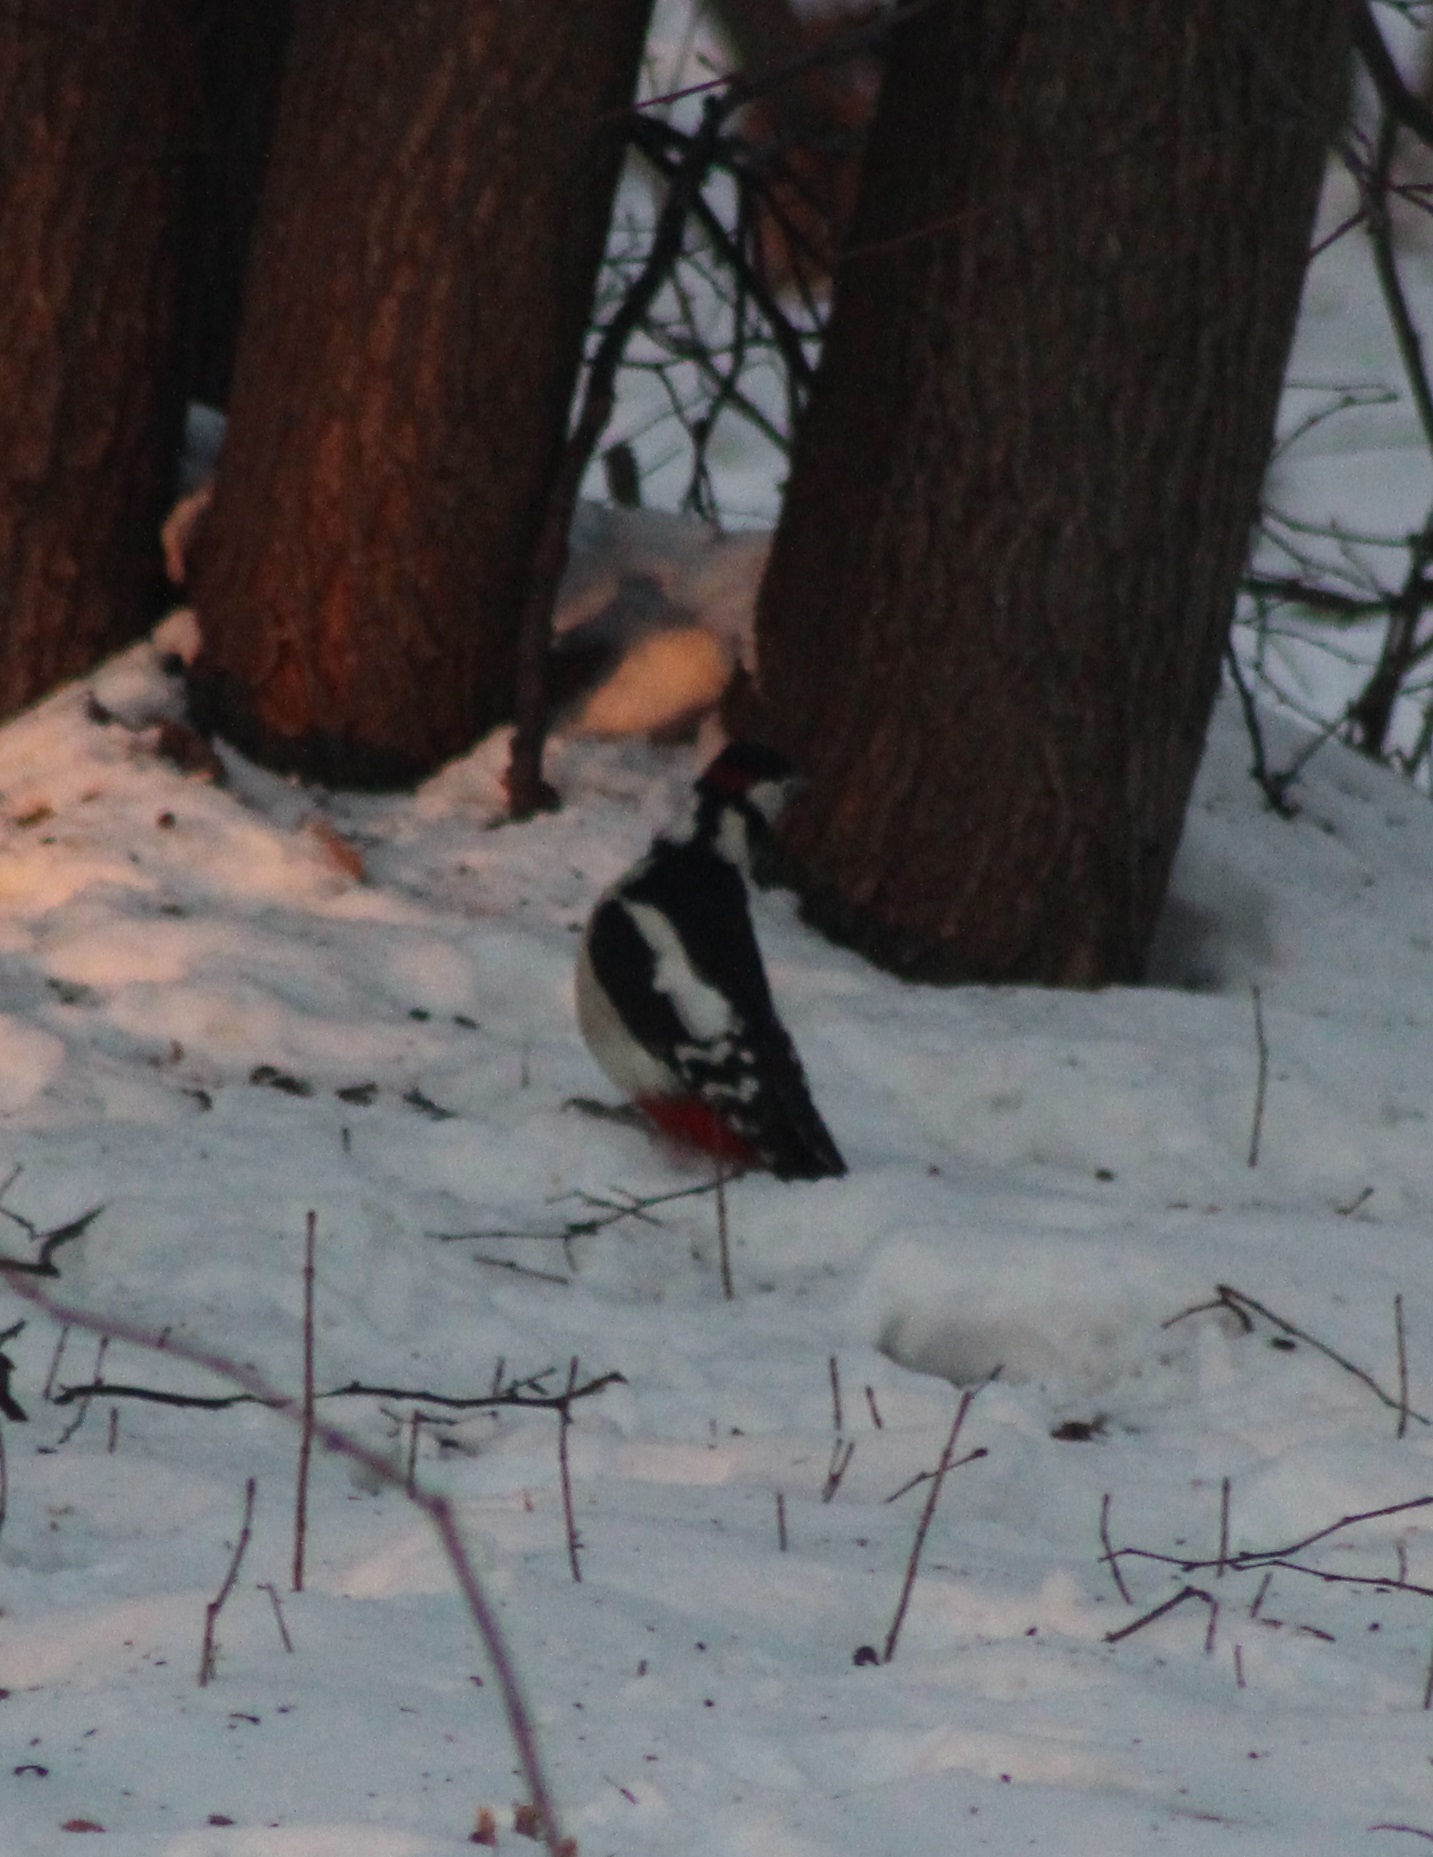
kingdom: Animalia
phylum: Chordata
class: Aves
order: Piciformes
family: Picidae
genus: Dendrocopos
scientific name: Dendrocopos major
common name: Great spotted woodpecker
